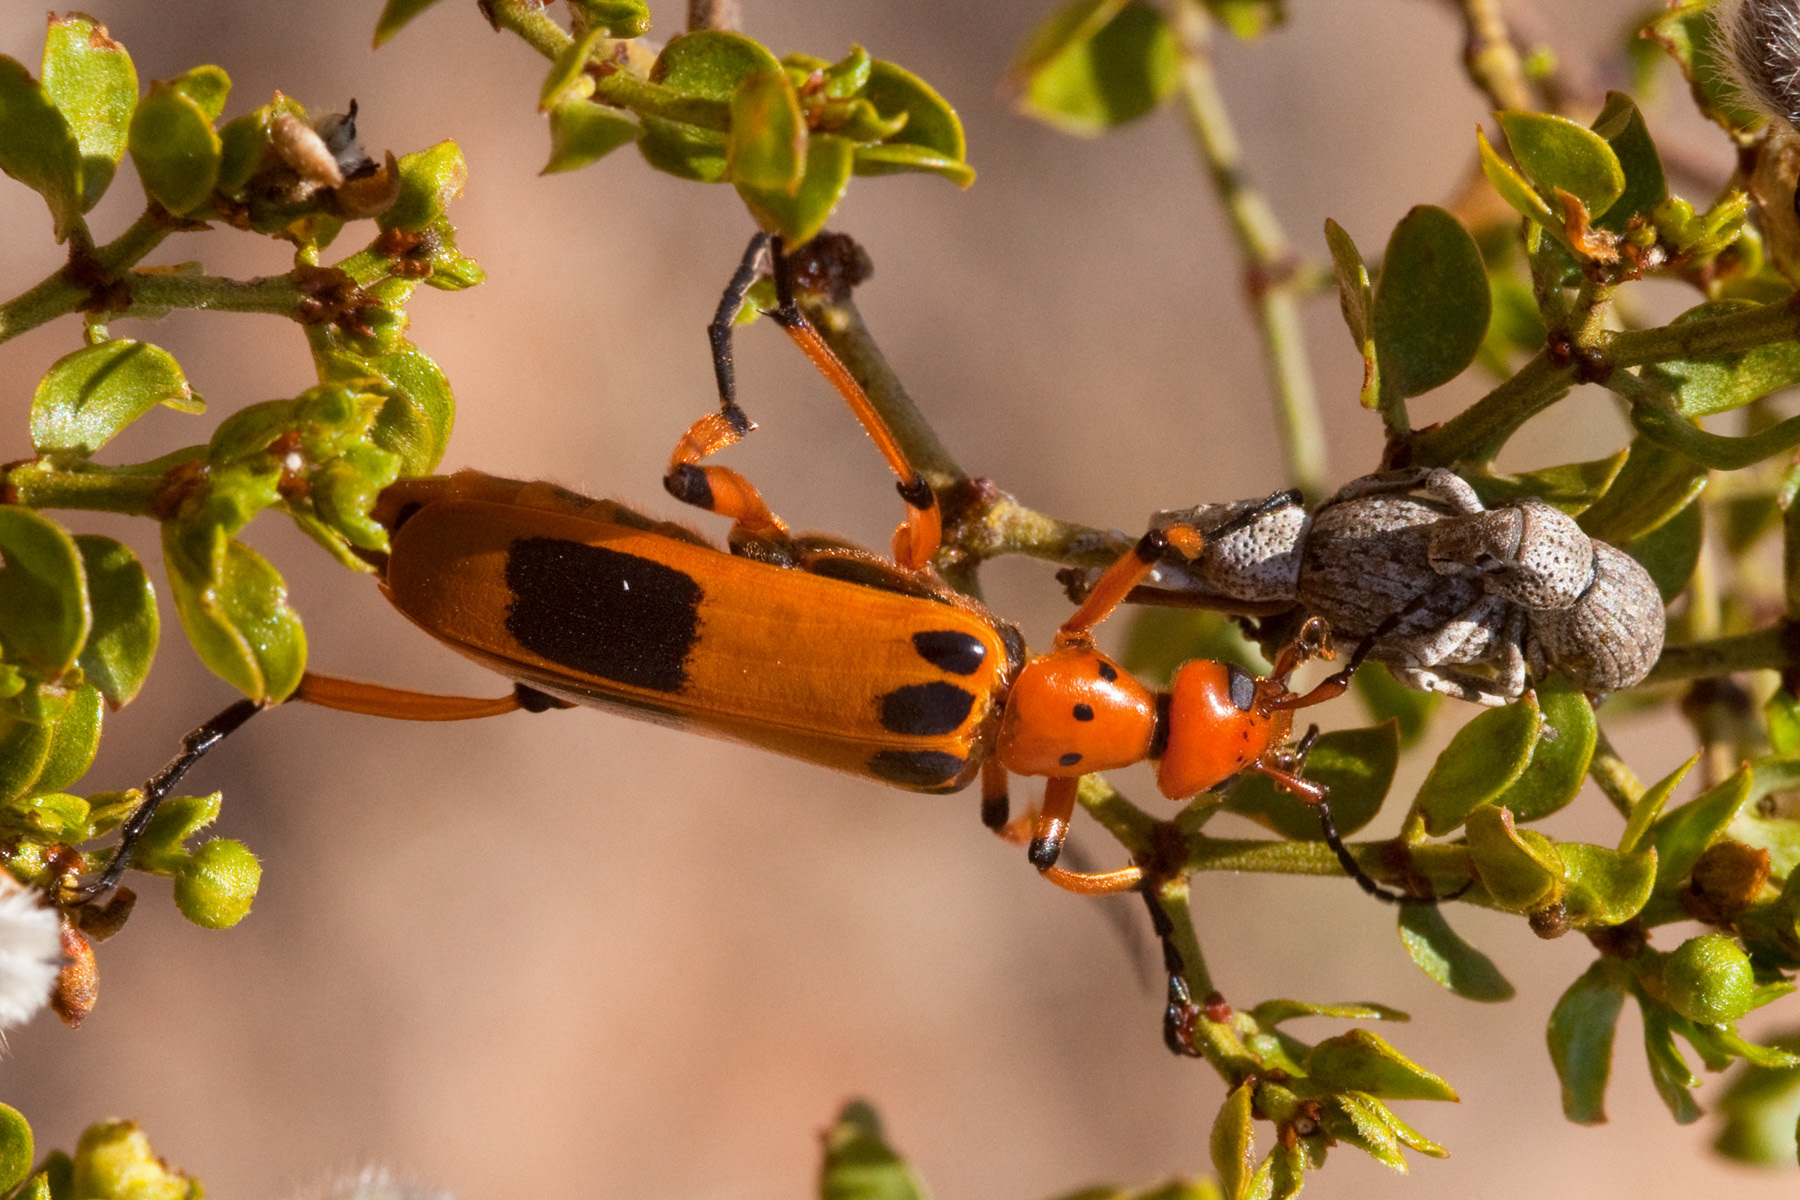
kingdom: Animalia
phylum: Arthropoda
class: Insecta
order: Coleoptera
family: Meloidae
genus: Pyrota
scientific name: Pyrota postica
